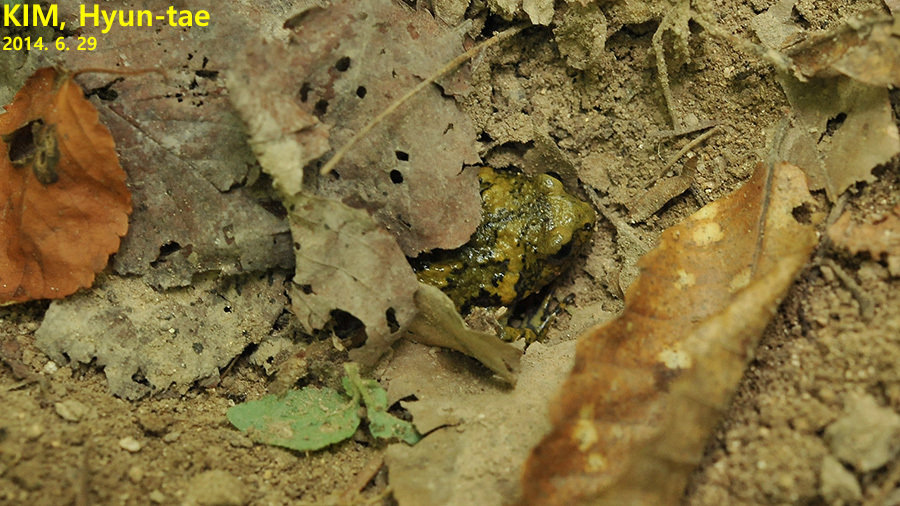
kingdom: Animalia
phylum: Chordata
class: Amphibia
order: Anura
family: Microhylidae
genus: Kaloula
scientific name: Kaloula borealis
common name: Boreal digging frog
